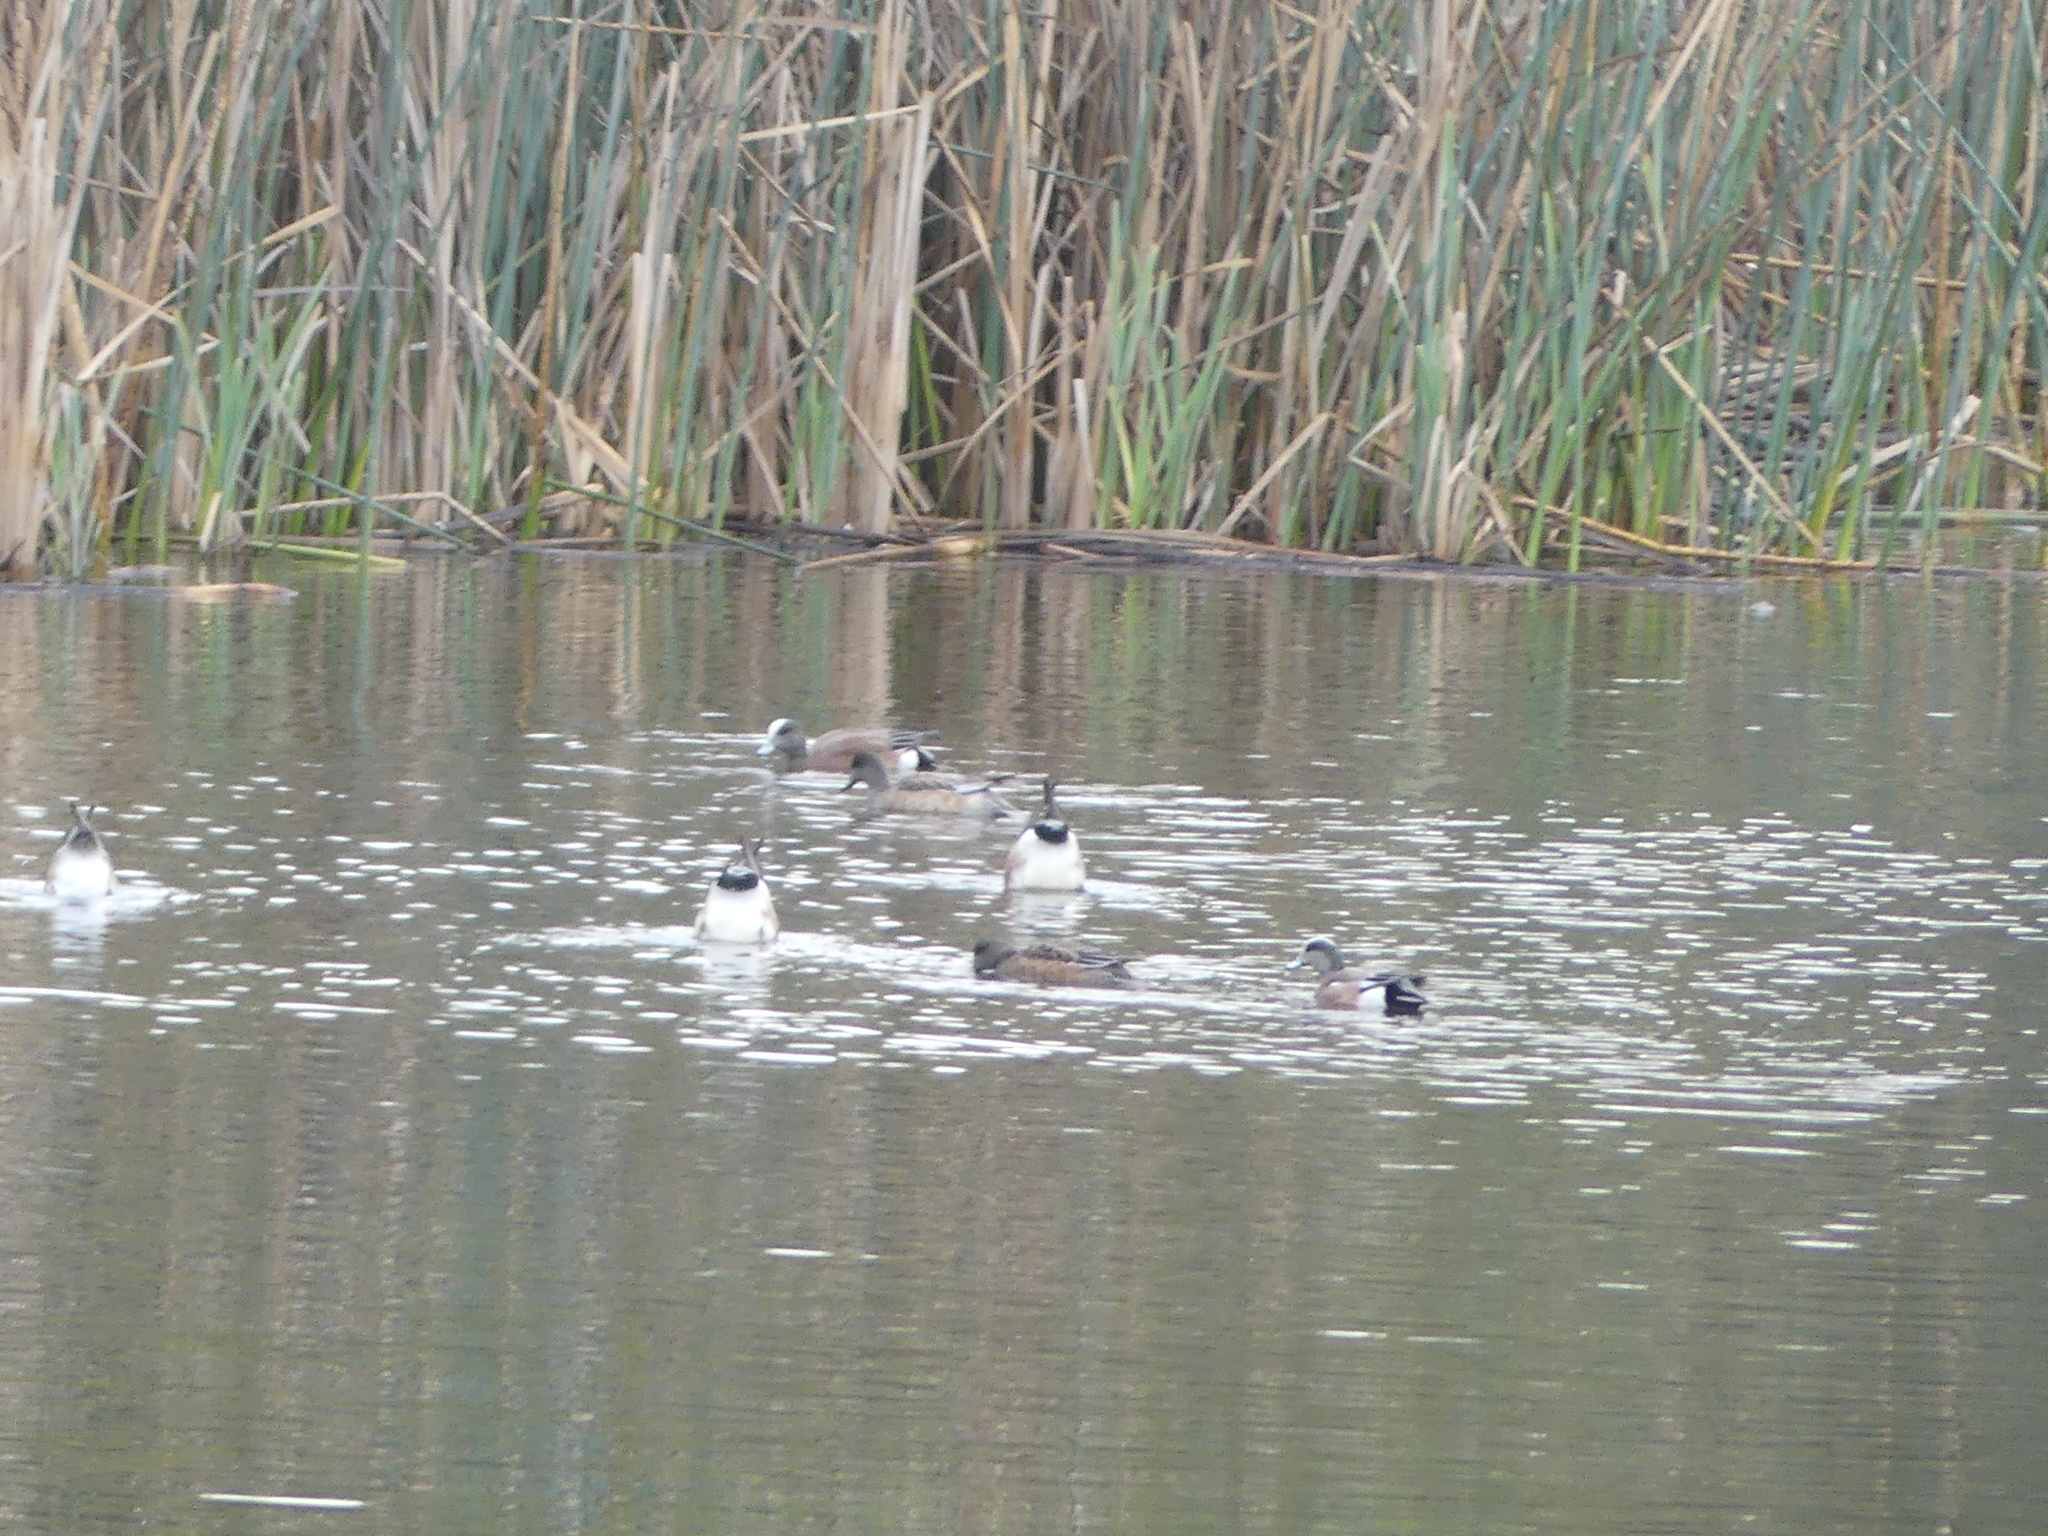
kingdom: Animalia
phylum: Chordata
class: Aves
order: Anseriformes
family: Anatidae
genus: Mareca
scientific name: Mareca americana
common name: American wigeon
